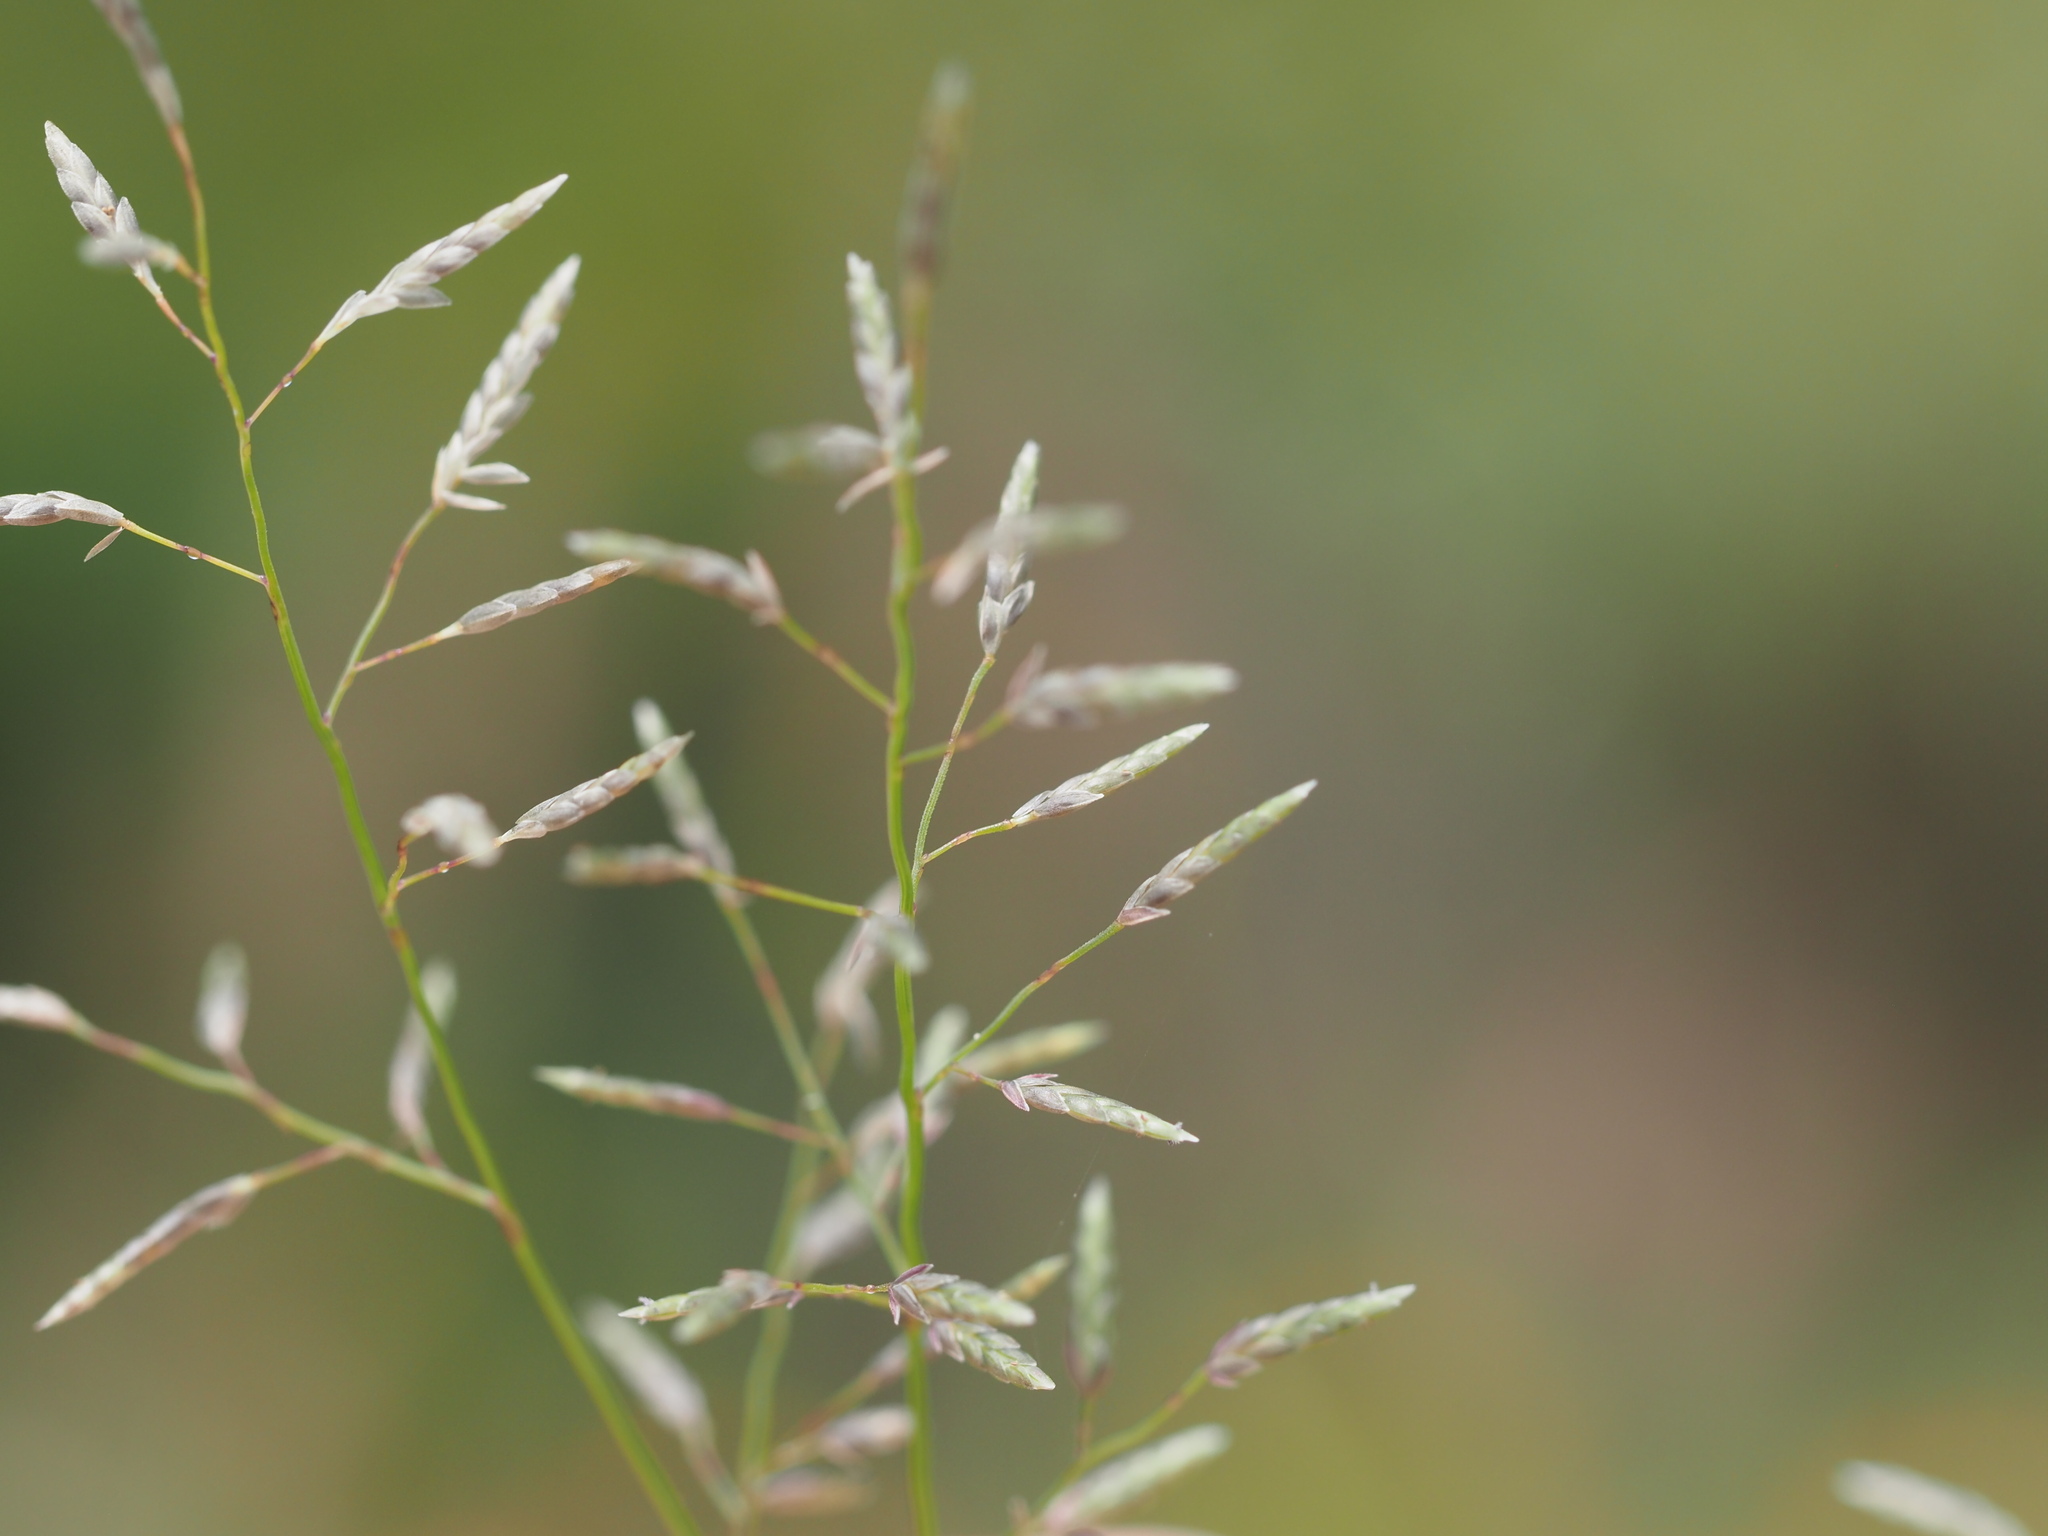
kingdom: Plantae
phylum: Tracheophyta
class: Liliopsida
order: Poales
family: Poaceae
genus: Eragrostis
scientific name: Eragrostis barrelieri
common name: Mediterranean lovegrass
